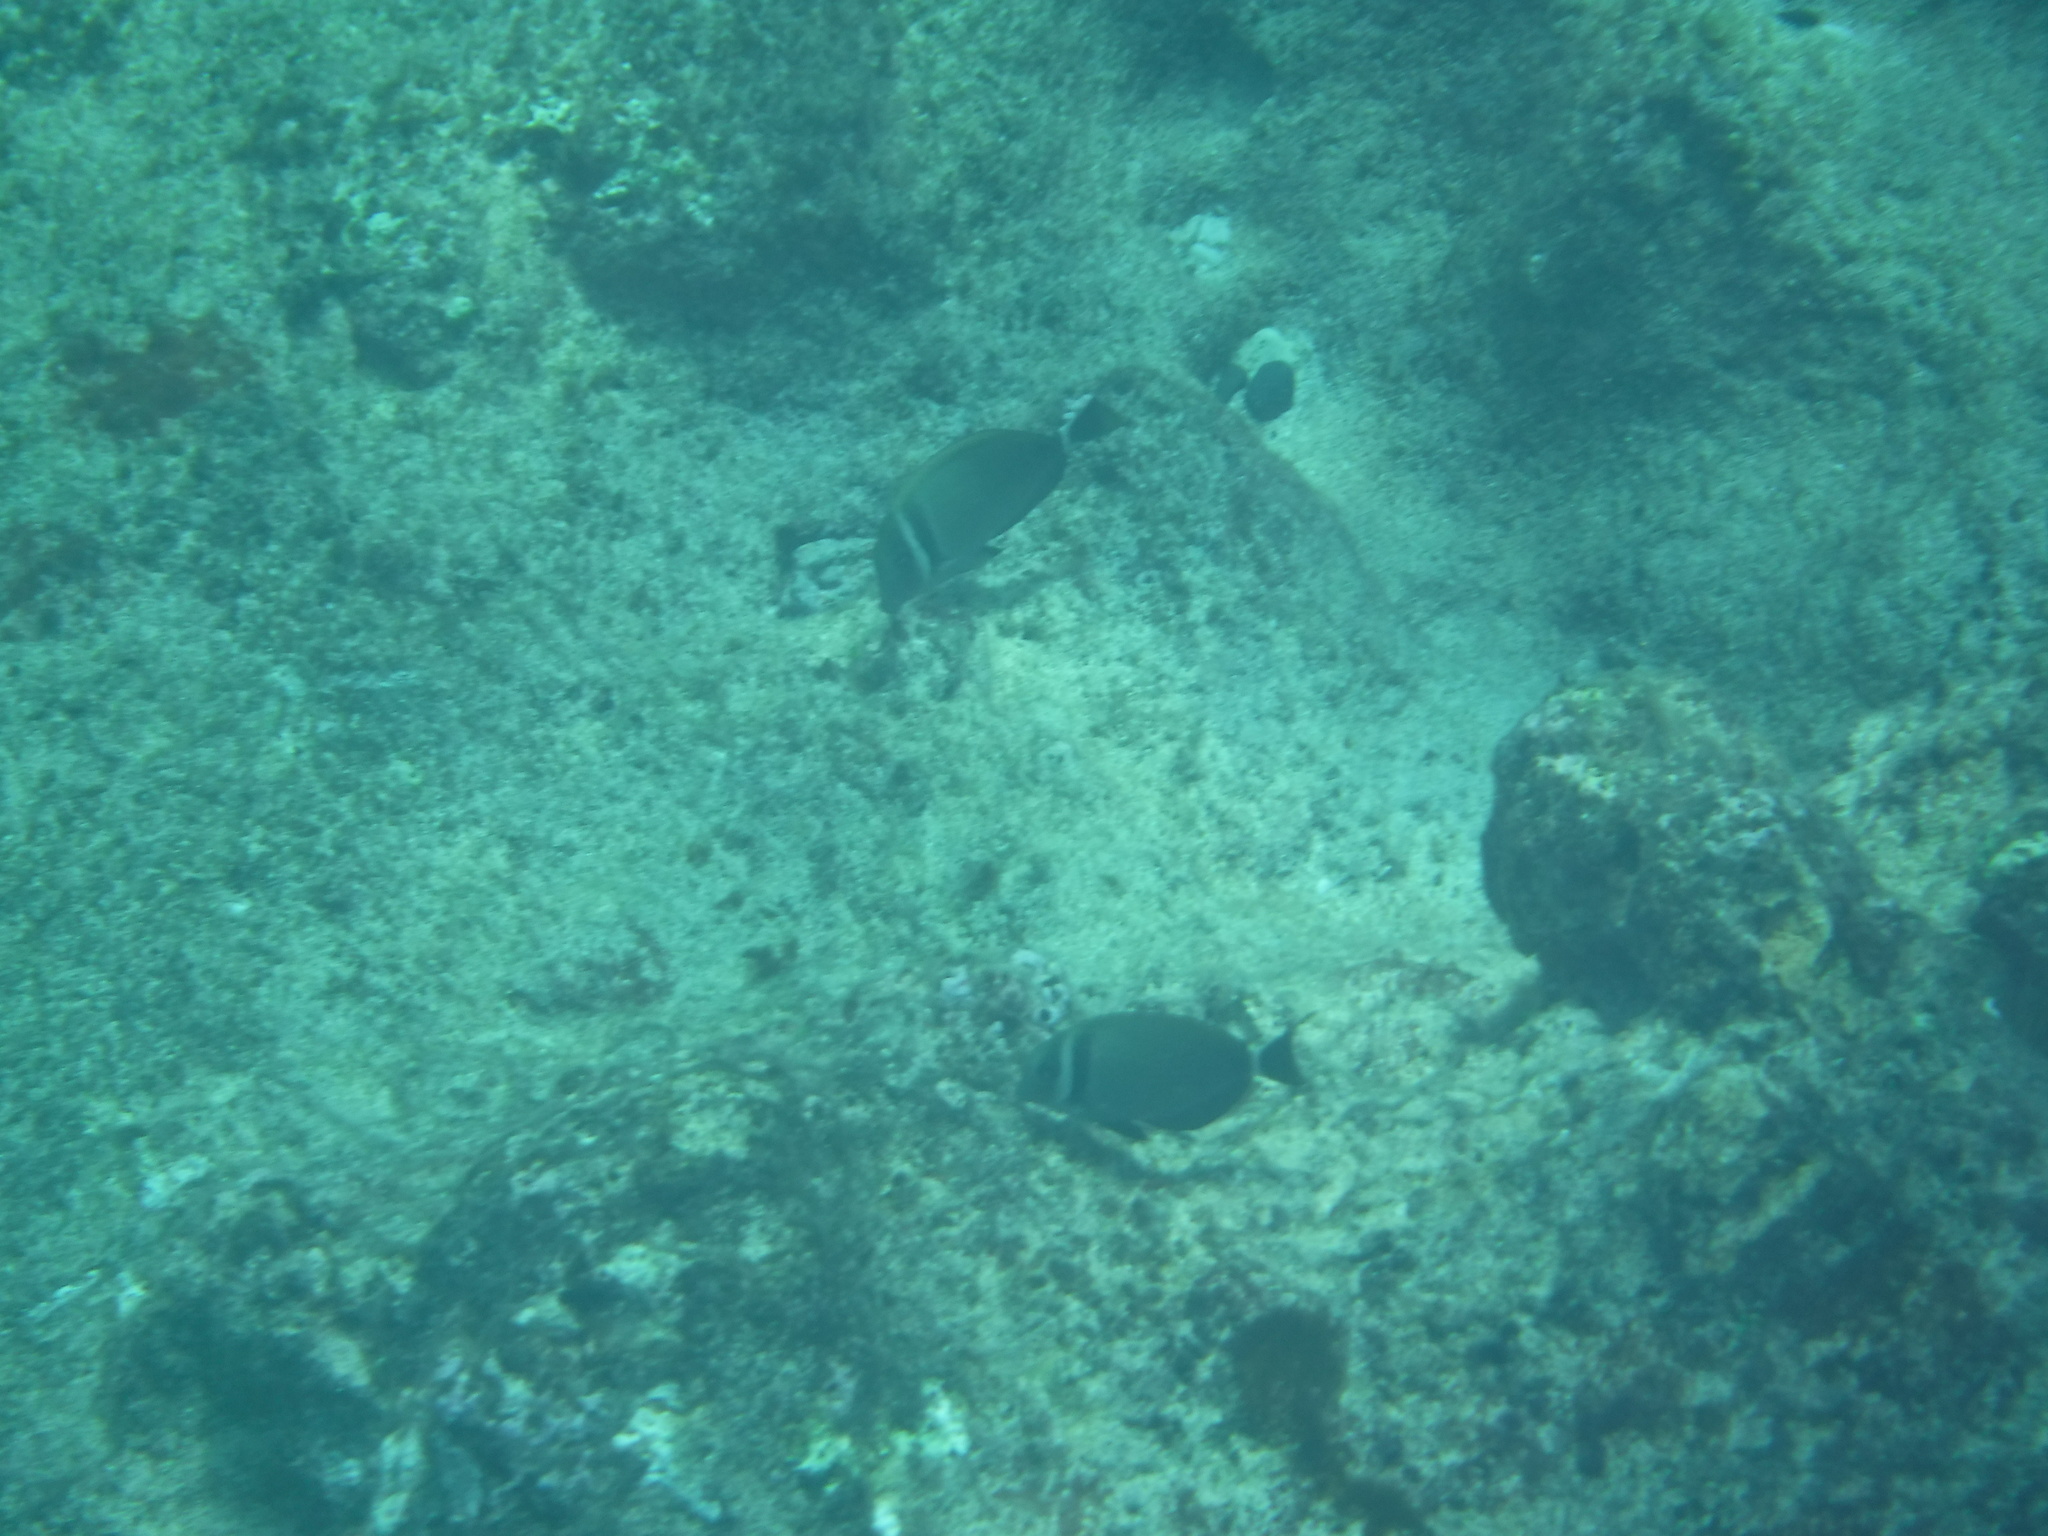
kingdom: Animalia
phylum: Chordata
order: Perciformes
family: Acanthuridae
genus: Acanthurus
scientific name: Acanthurus leucopareius
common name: Head-band surgeonfish
